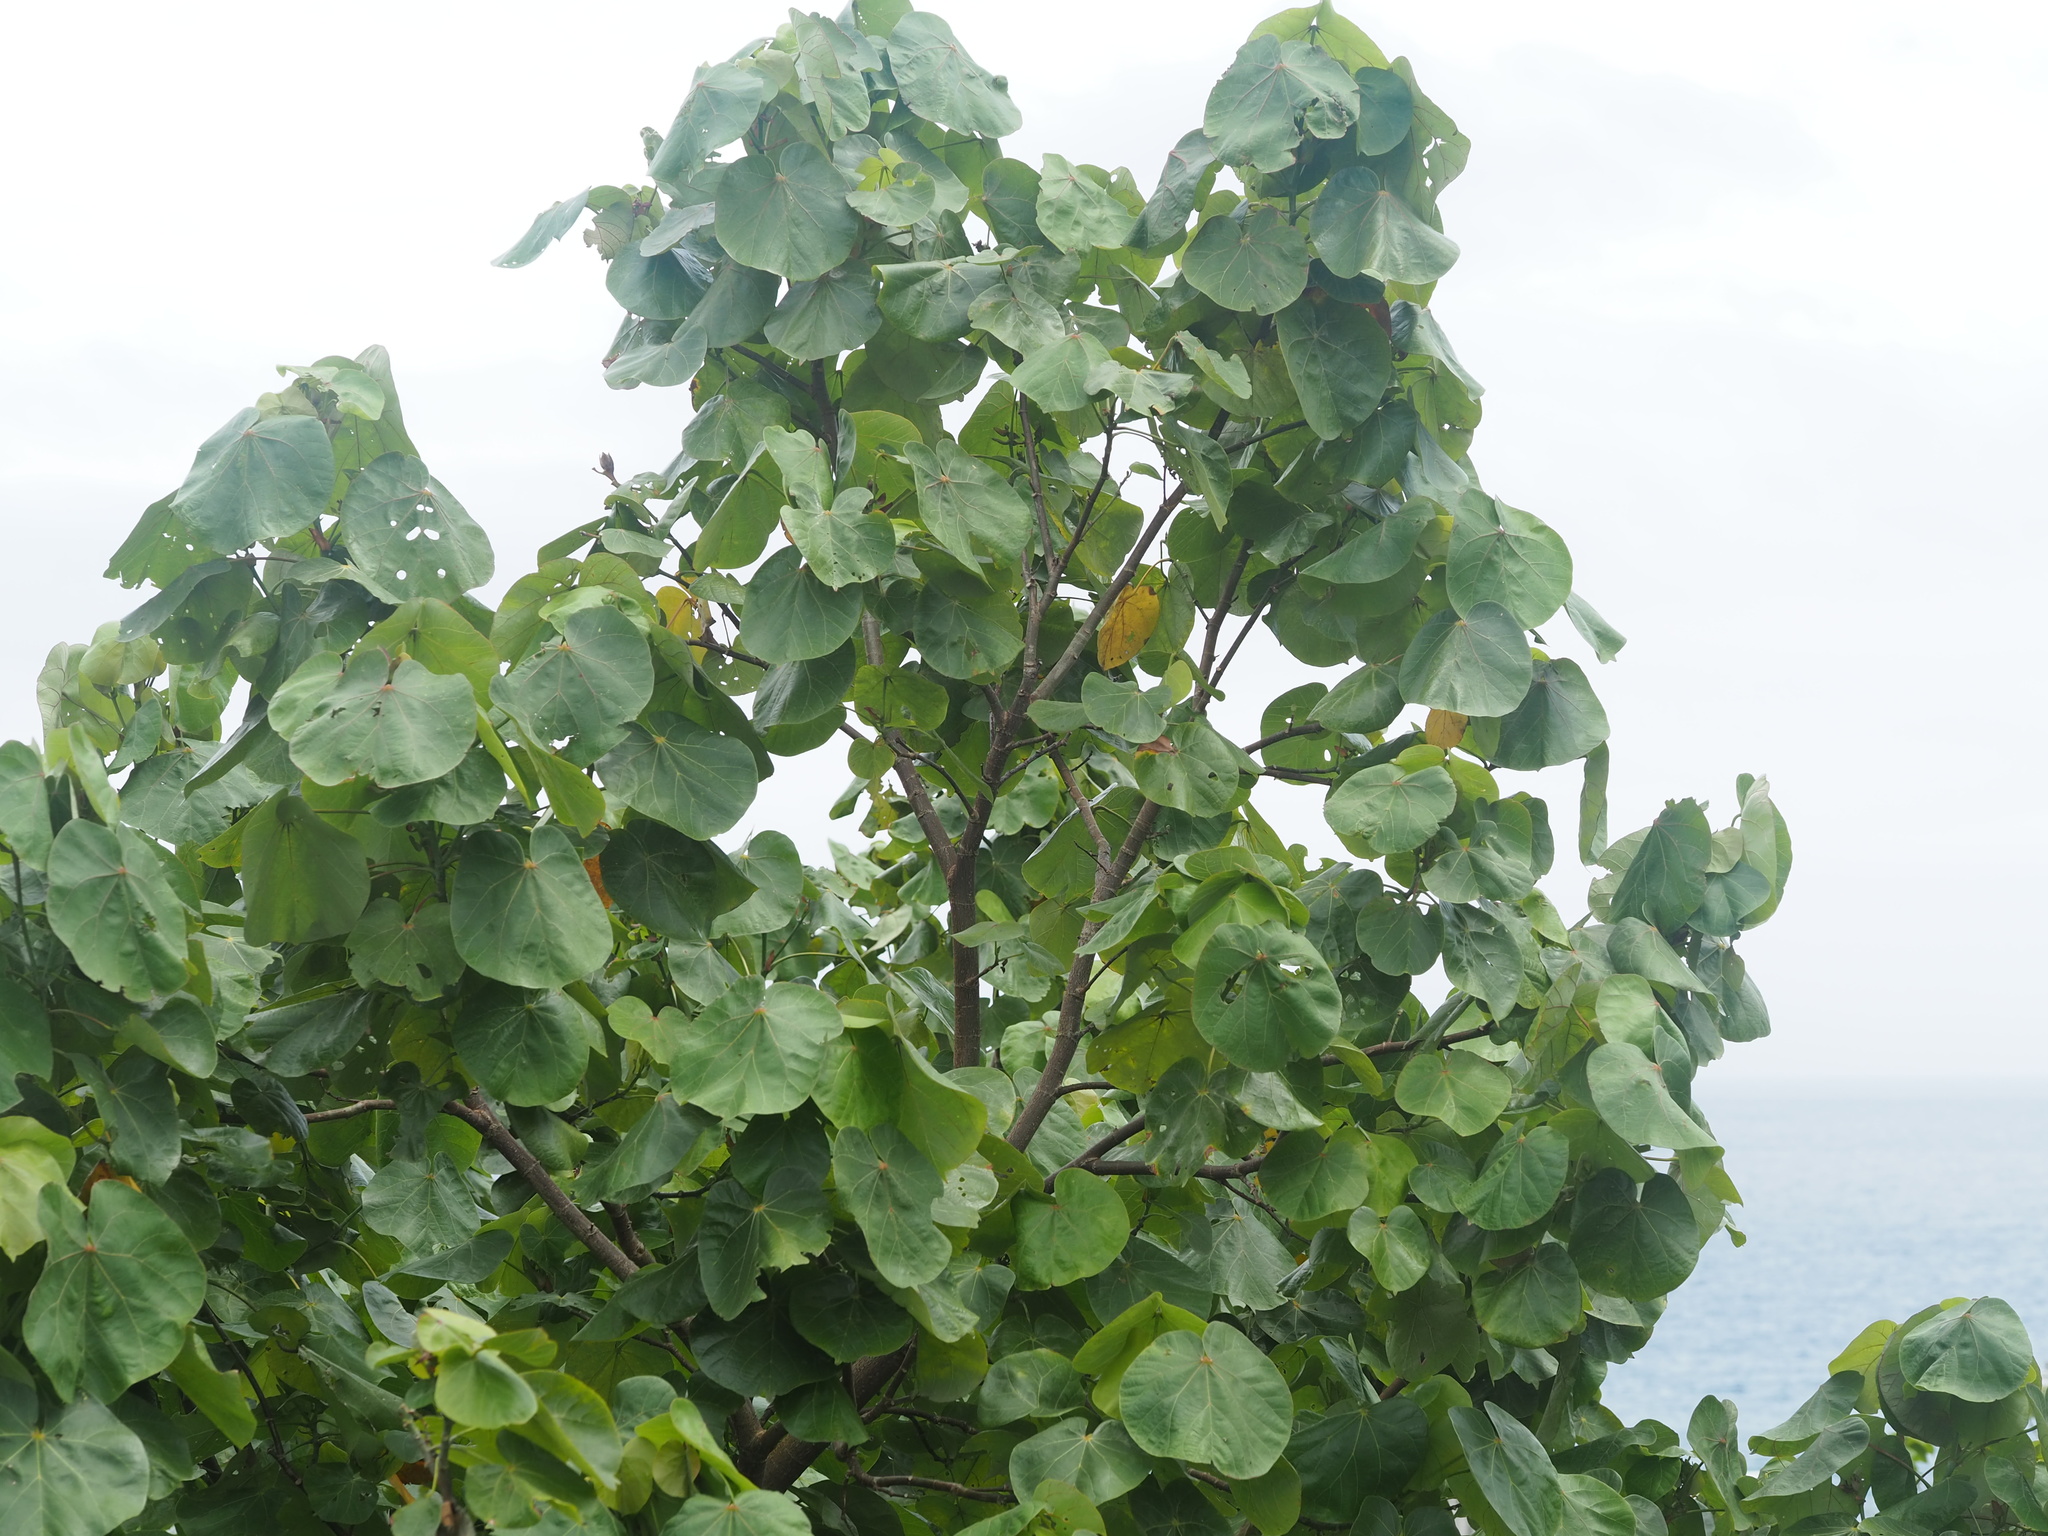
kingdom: Plantae
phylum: Tracheophyta
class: Magnoliopsida
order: Malvales
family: Malvaceae
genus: Talipariti
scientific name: Talipariti tiliaceum
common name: Sea hibiscus
